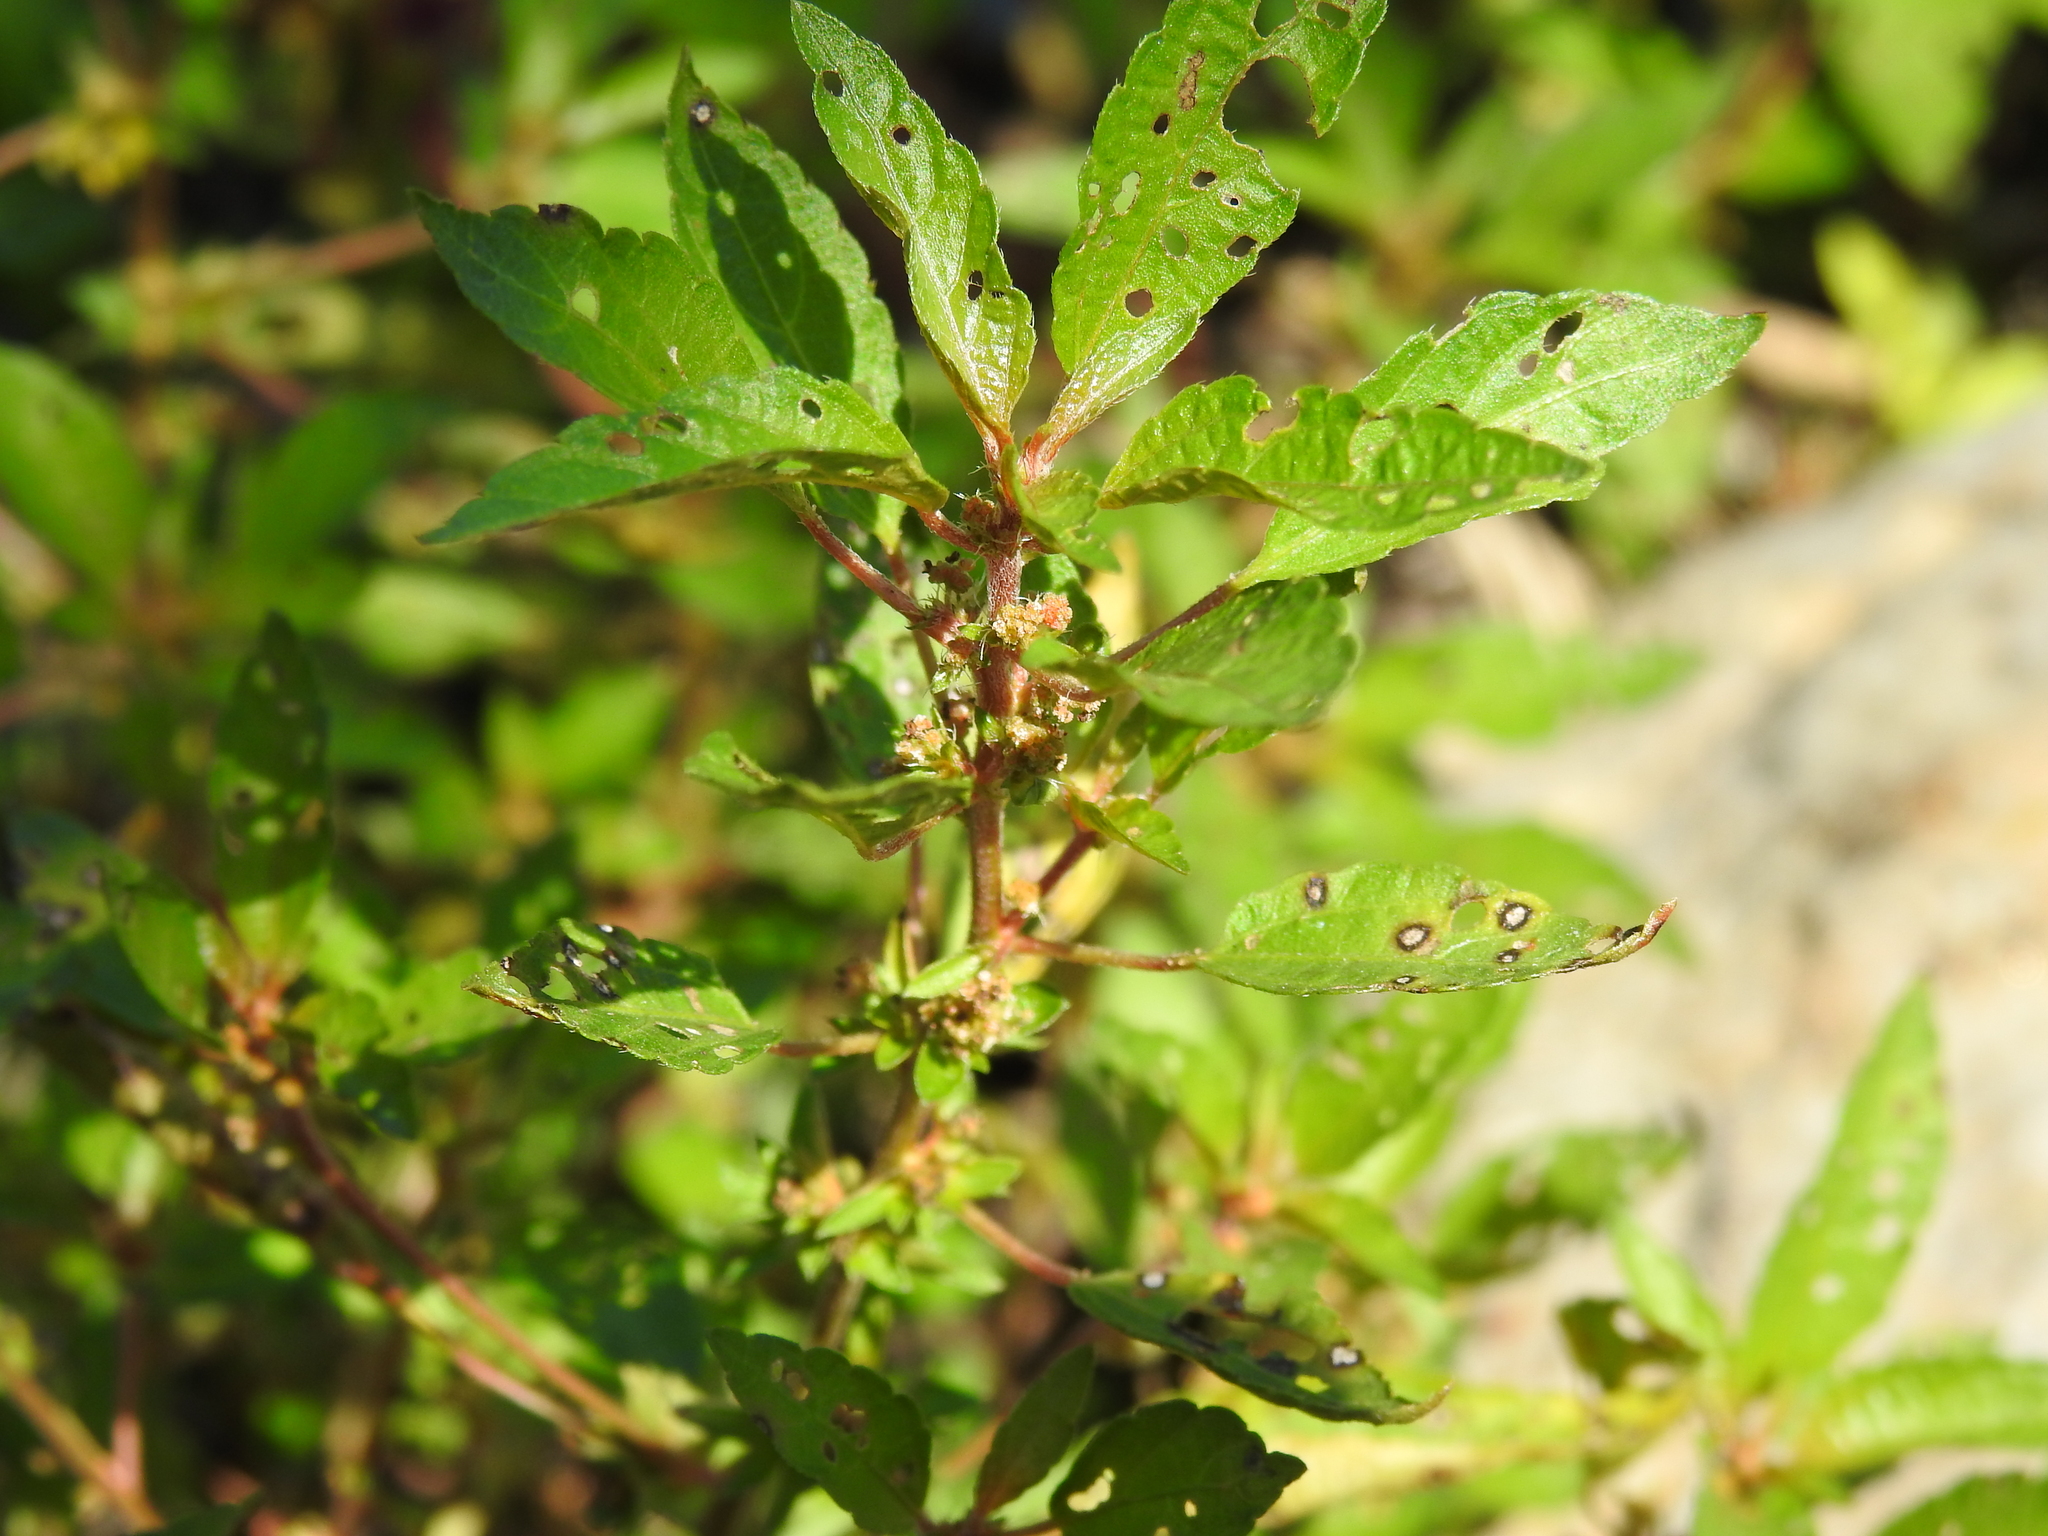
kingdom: Plantae
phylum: Tracheophyta
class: Magnoliopsida
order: Malpighiales
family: Euphorbiaceae
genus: Acalypha
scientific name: Acalypha rhomboidea
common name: Rhombic copperleaf
